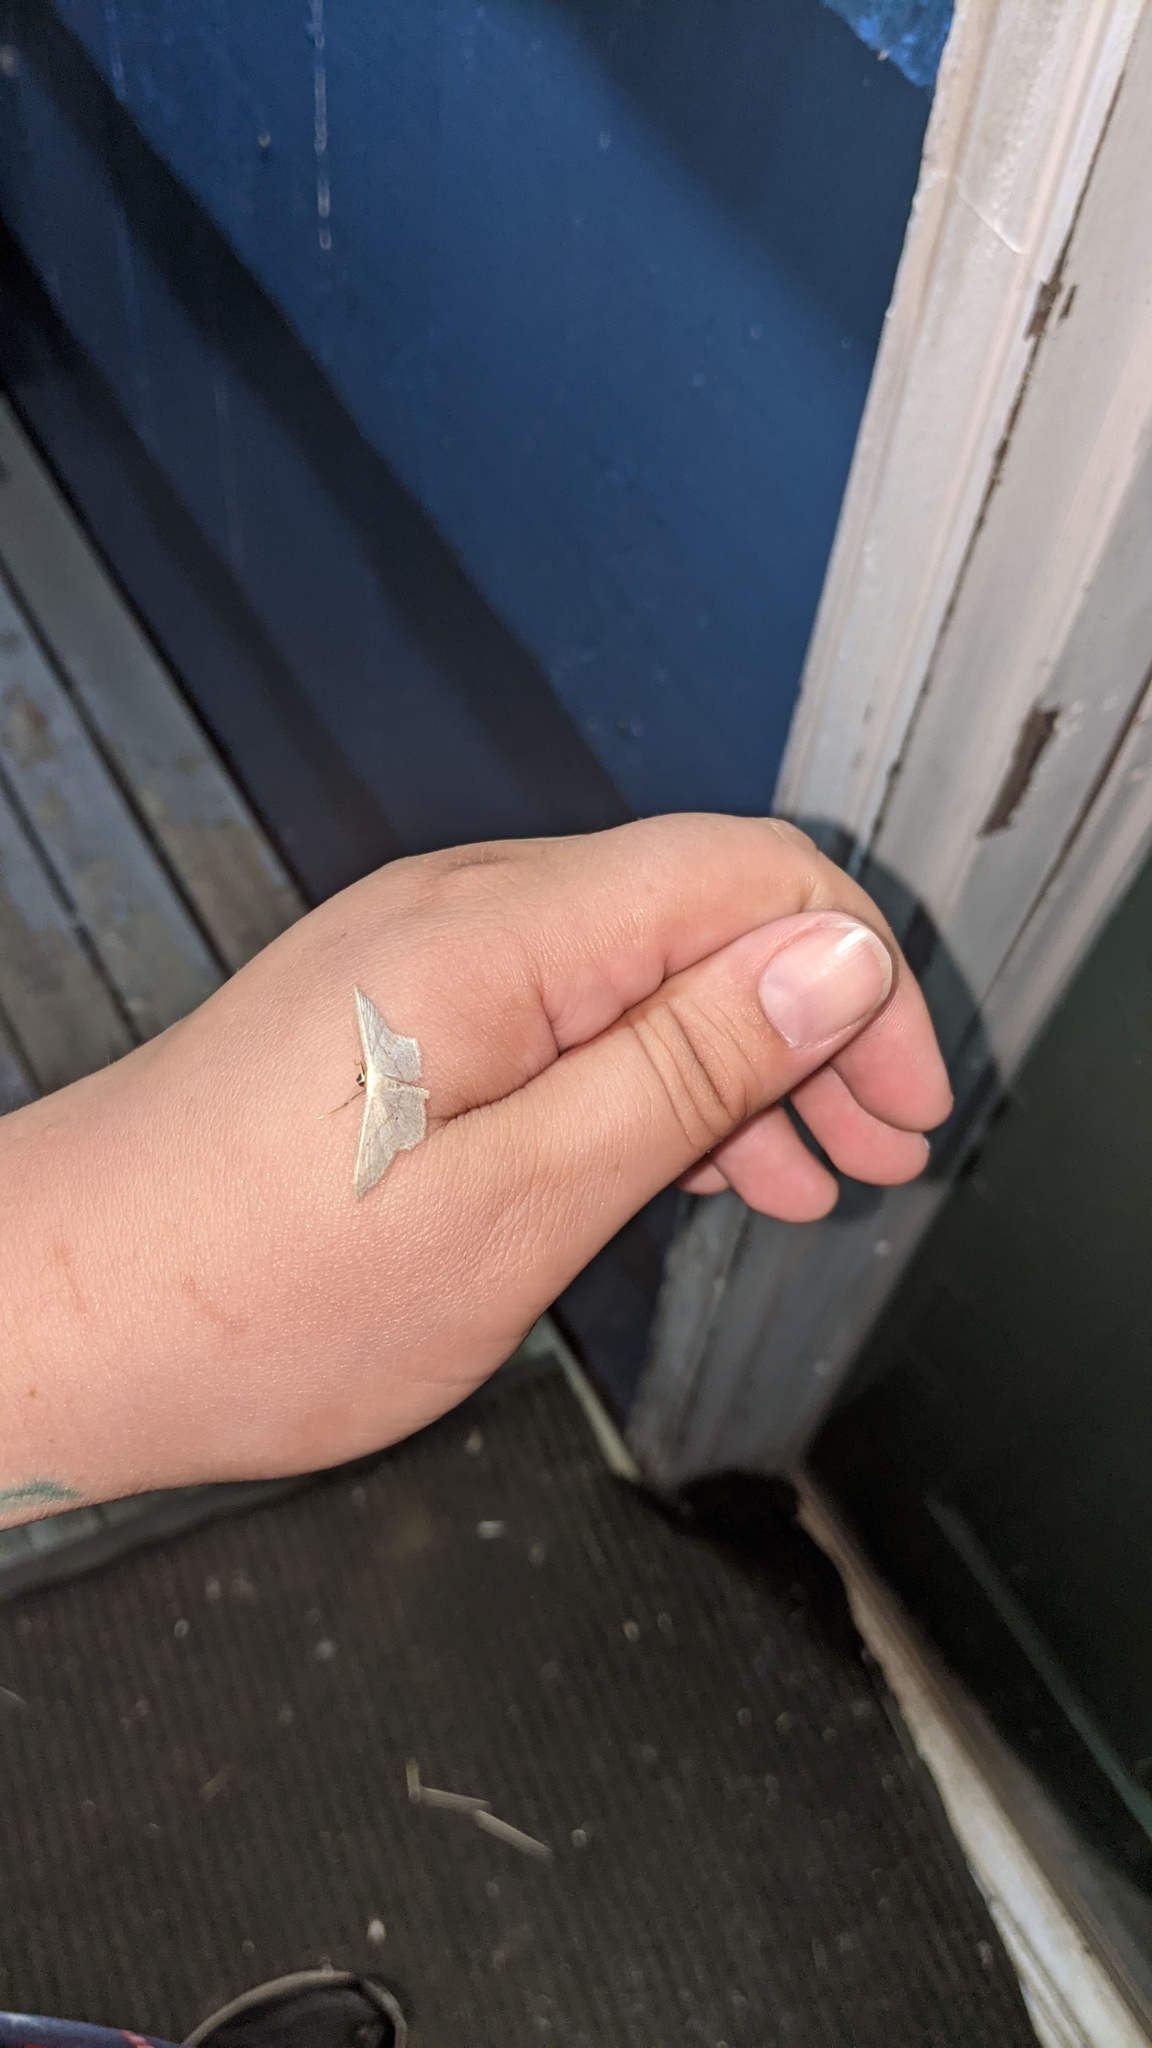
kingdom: Animalia
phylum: Arthropoda
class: Insecta
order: Lepidoptera
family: Geometridae
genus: Scopula
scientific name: Scopula limboundata
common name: Large lace border
